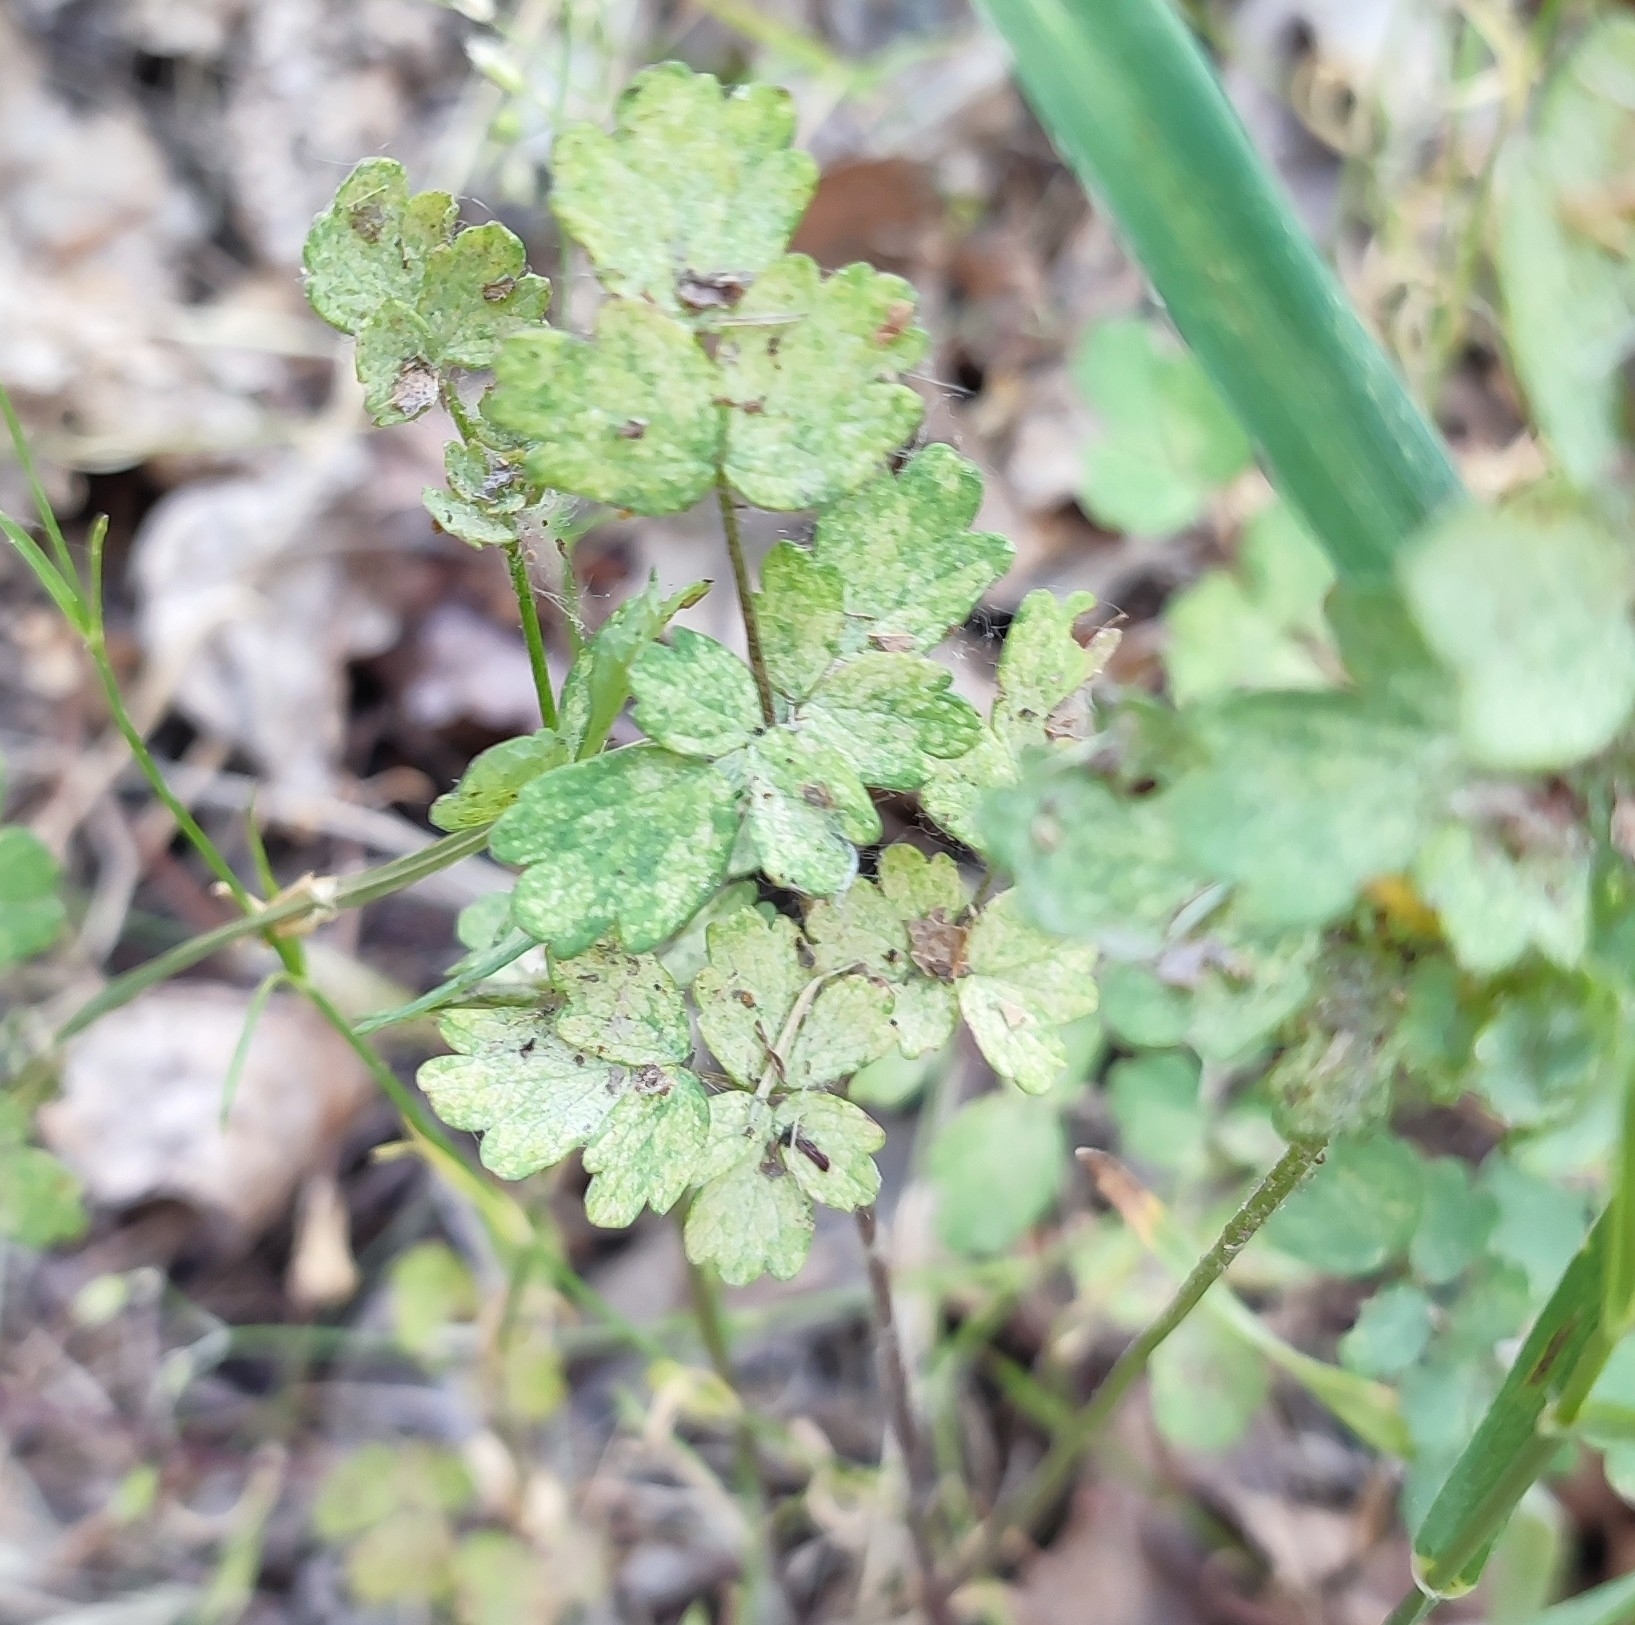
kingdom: Plantae
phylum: Tracheophyta
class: Magnoliopsida
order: Ranunculales
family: Ranunculaceae
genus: Thalictrum
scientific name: Thalictrum minus
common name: Lesser meadow-rue
